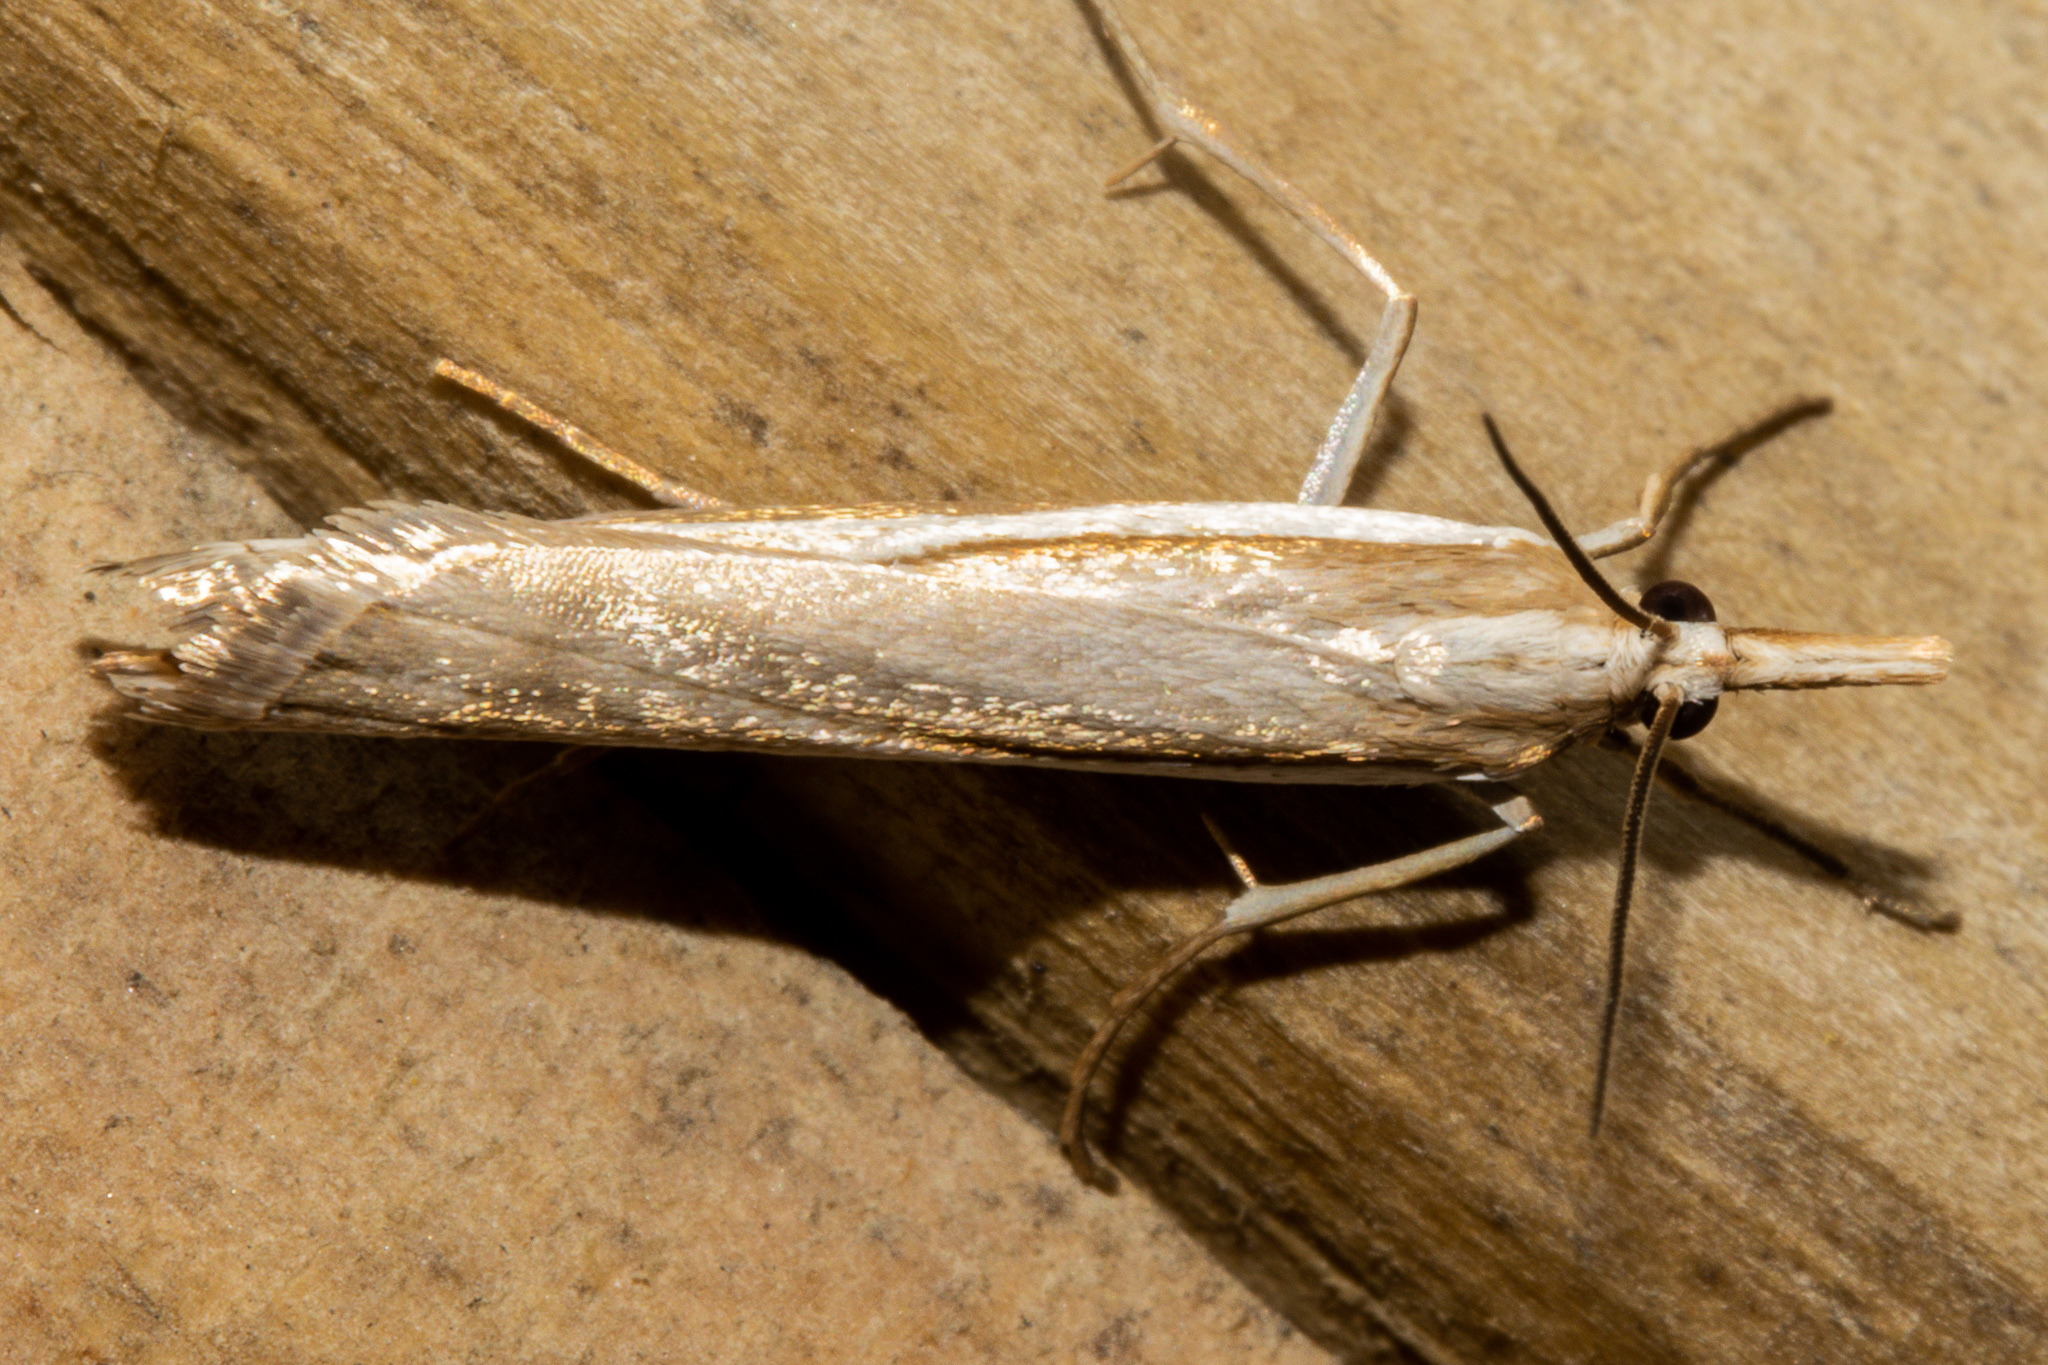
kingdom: Animalia
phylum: Arthropoda
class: Insecta
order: Lepidoptera
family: Crambidae
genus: Orocrambus
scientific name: Orocrambus vittellus
